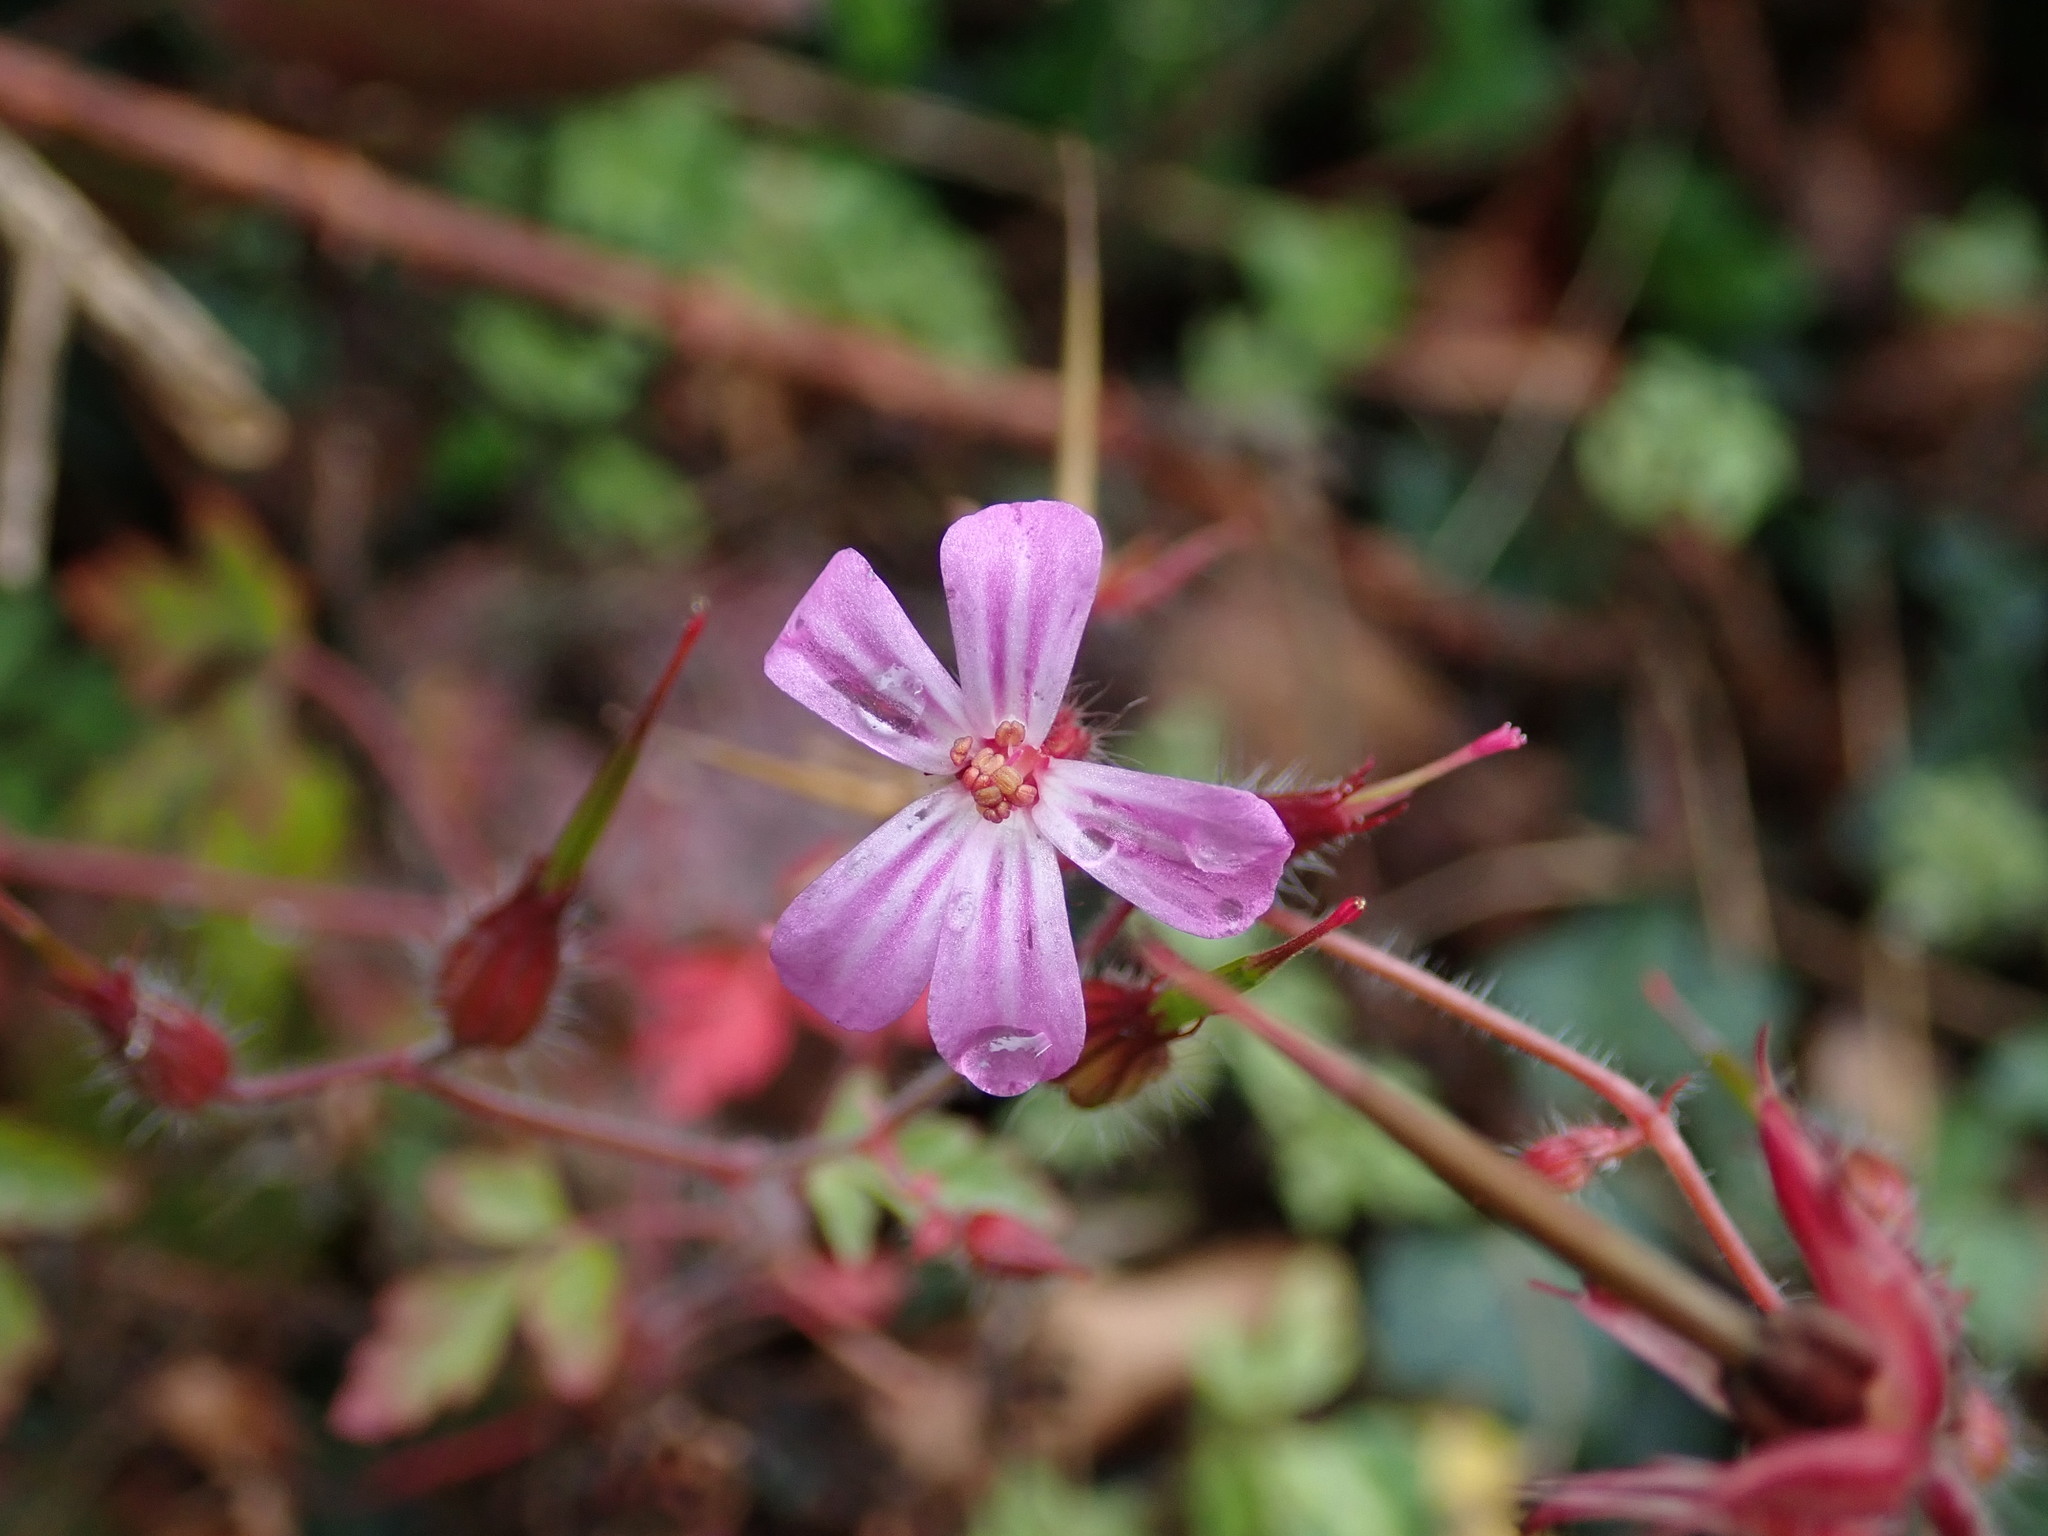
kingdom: Plantae
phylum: Tracheophyta
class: Magnoliopsida
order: Geraniales
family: Geraniaceae
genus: Geranium
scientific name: Geranium robertianum
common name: Herb-robert
